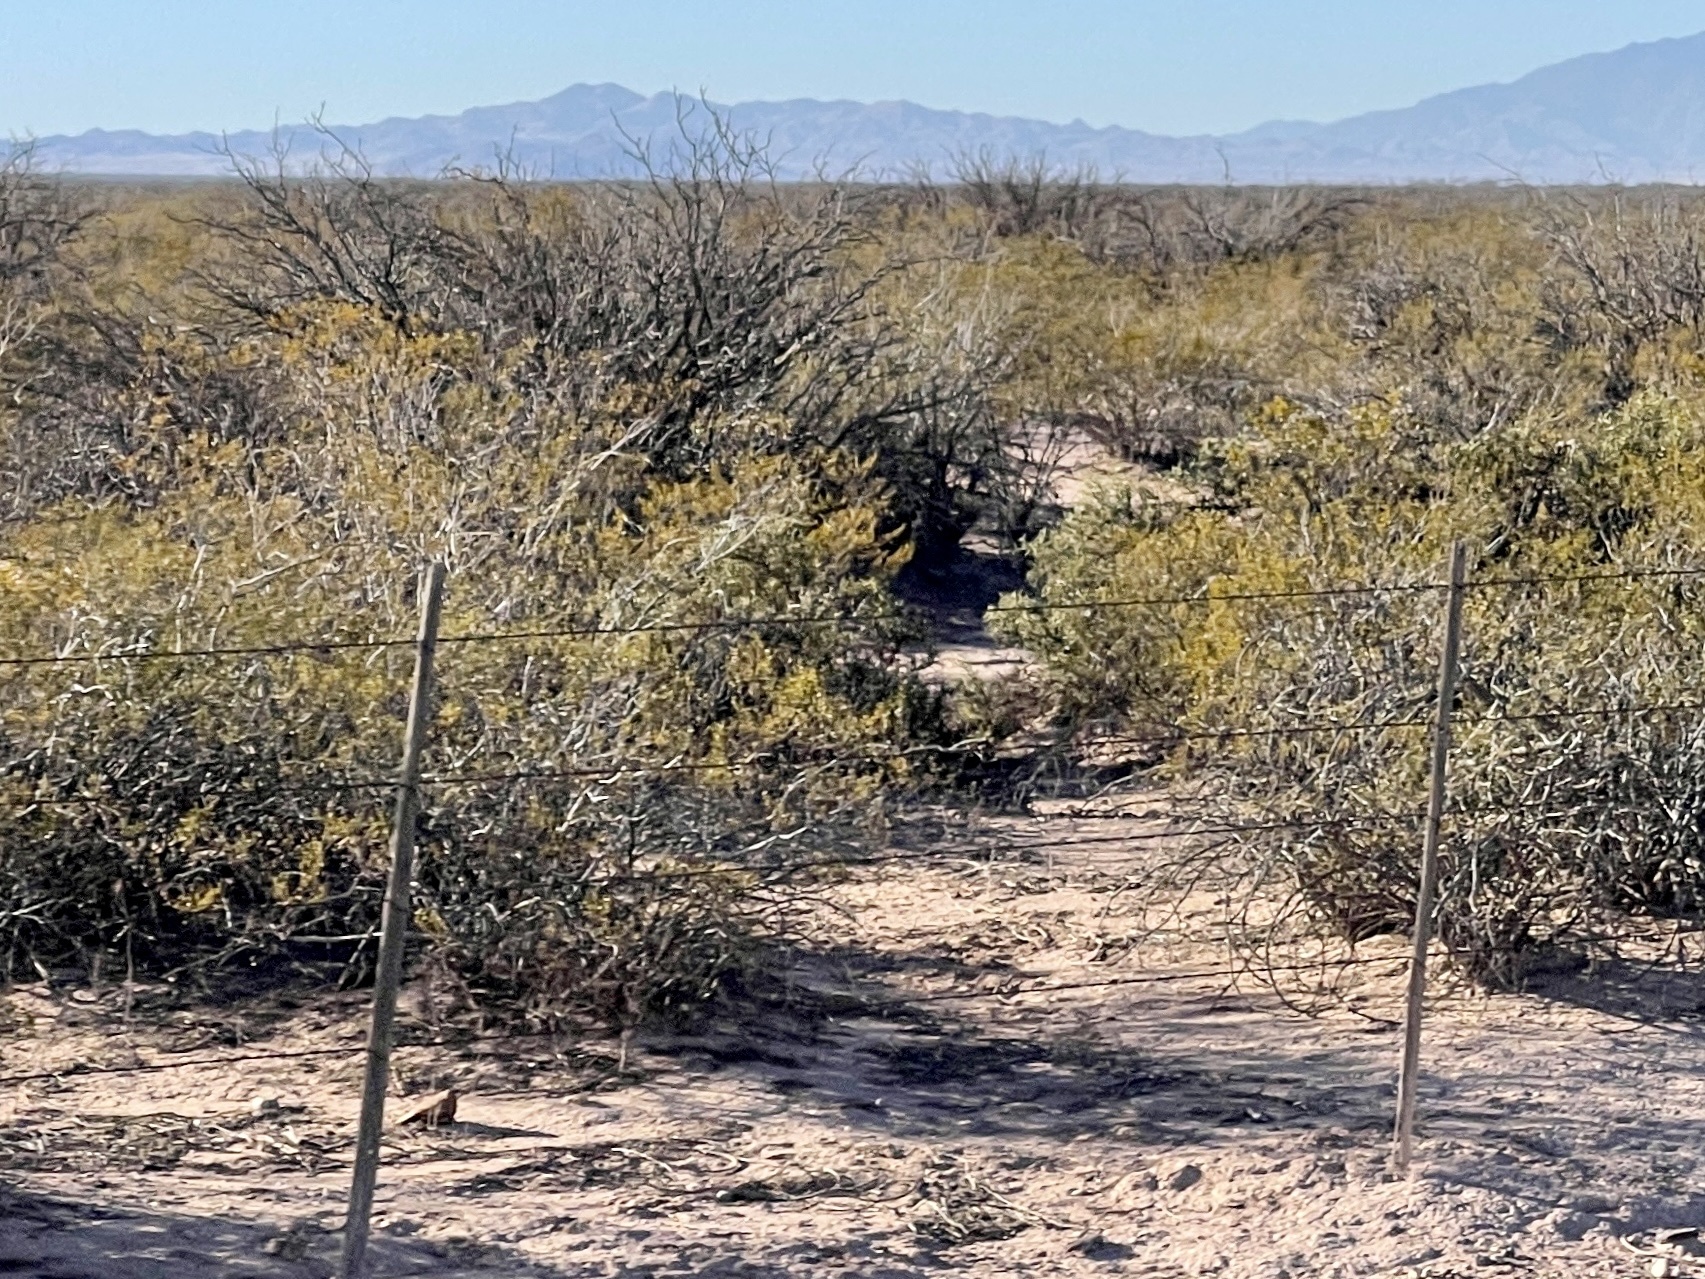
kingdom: Plantae
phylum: Tracheophyta
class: Magnoliopsida
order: Zygophyllales
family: Zygophyllaceae
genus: Larrea
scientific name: Larrea tridentata
